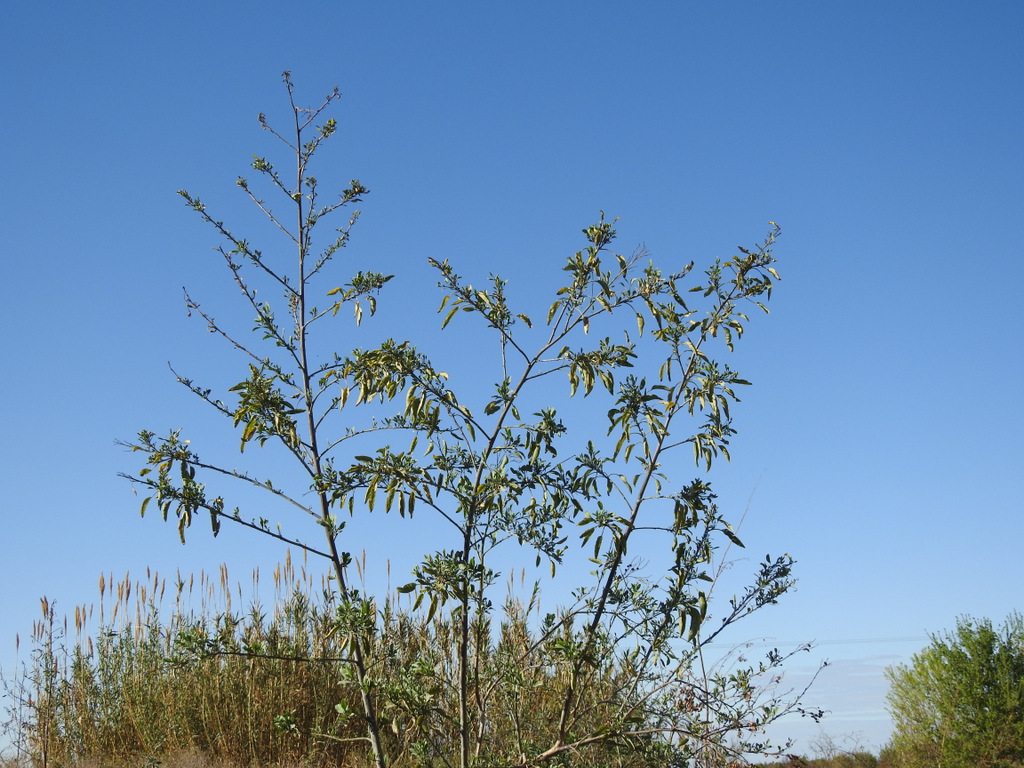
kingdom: Plantae
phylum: Tracheophyta
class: Magnoliopsida
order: Solanales
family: Solanaceae
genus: Nicotiana
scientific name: Nicotiana glauca
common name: Tree tobacco
